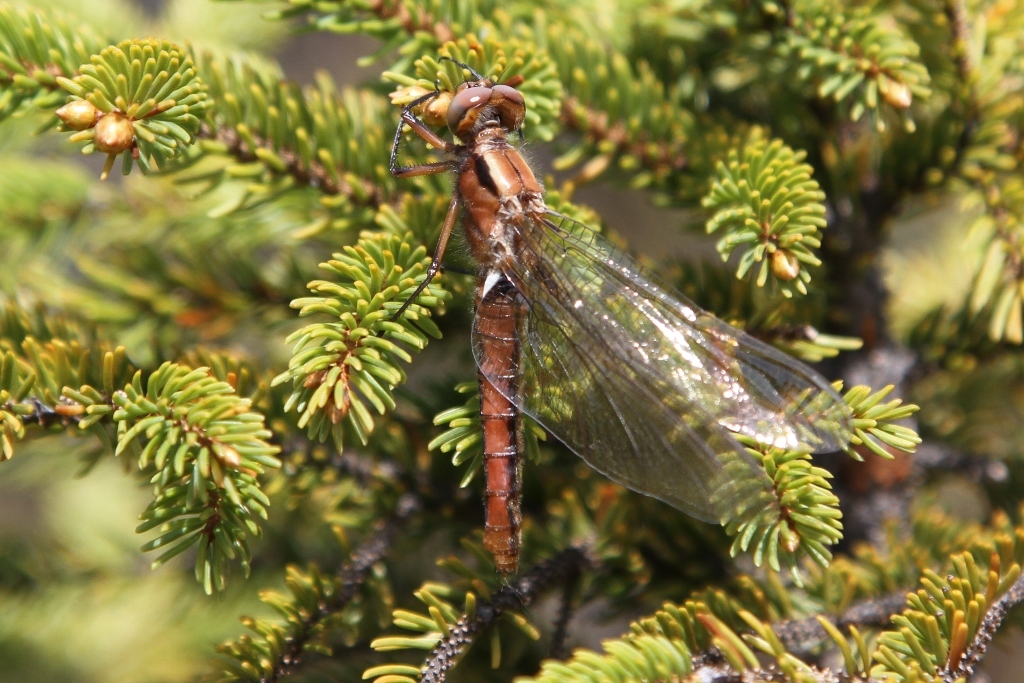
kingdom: Animalia
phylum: Arthropoda
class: Insecta
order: Odonata
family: Libellulidae
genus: Ladona
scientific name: Ladona julia
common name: Chalk-fronted corporal
